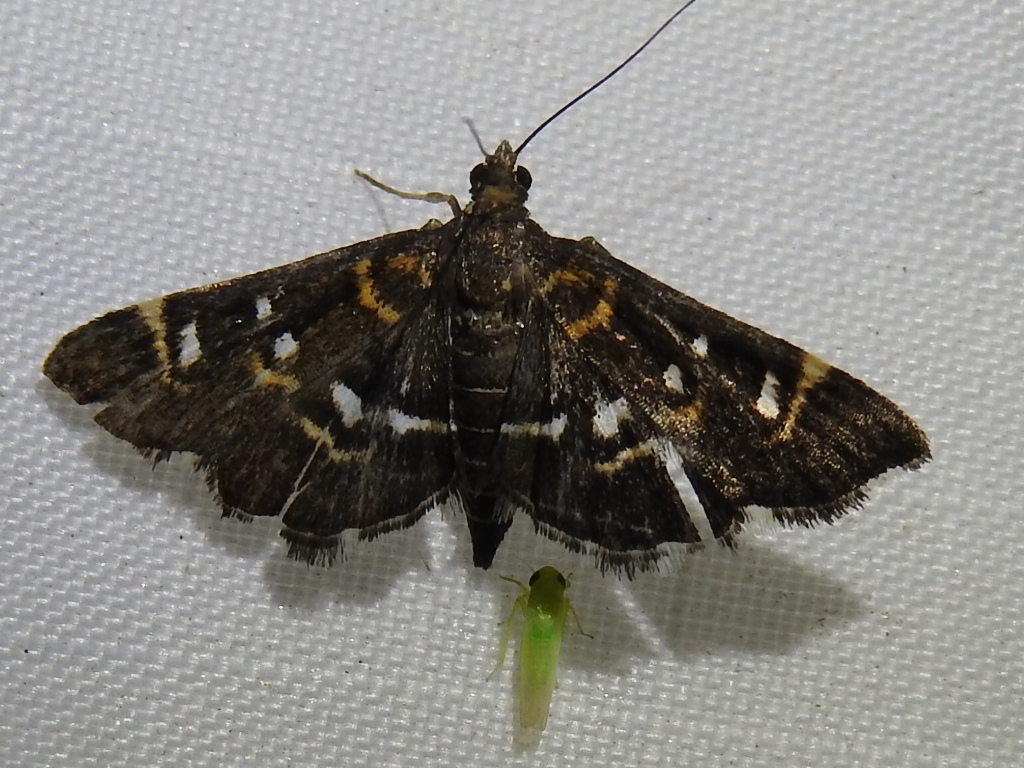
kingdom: Animalia
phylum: Arthropoda
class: Insecta
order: Lepidoptera
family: Crambidae
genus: Diathrausta
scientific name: Diathrausta harlequinalis
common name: Harlequin webworm moth
